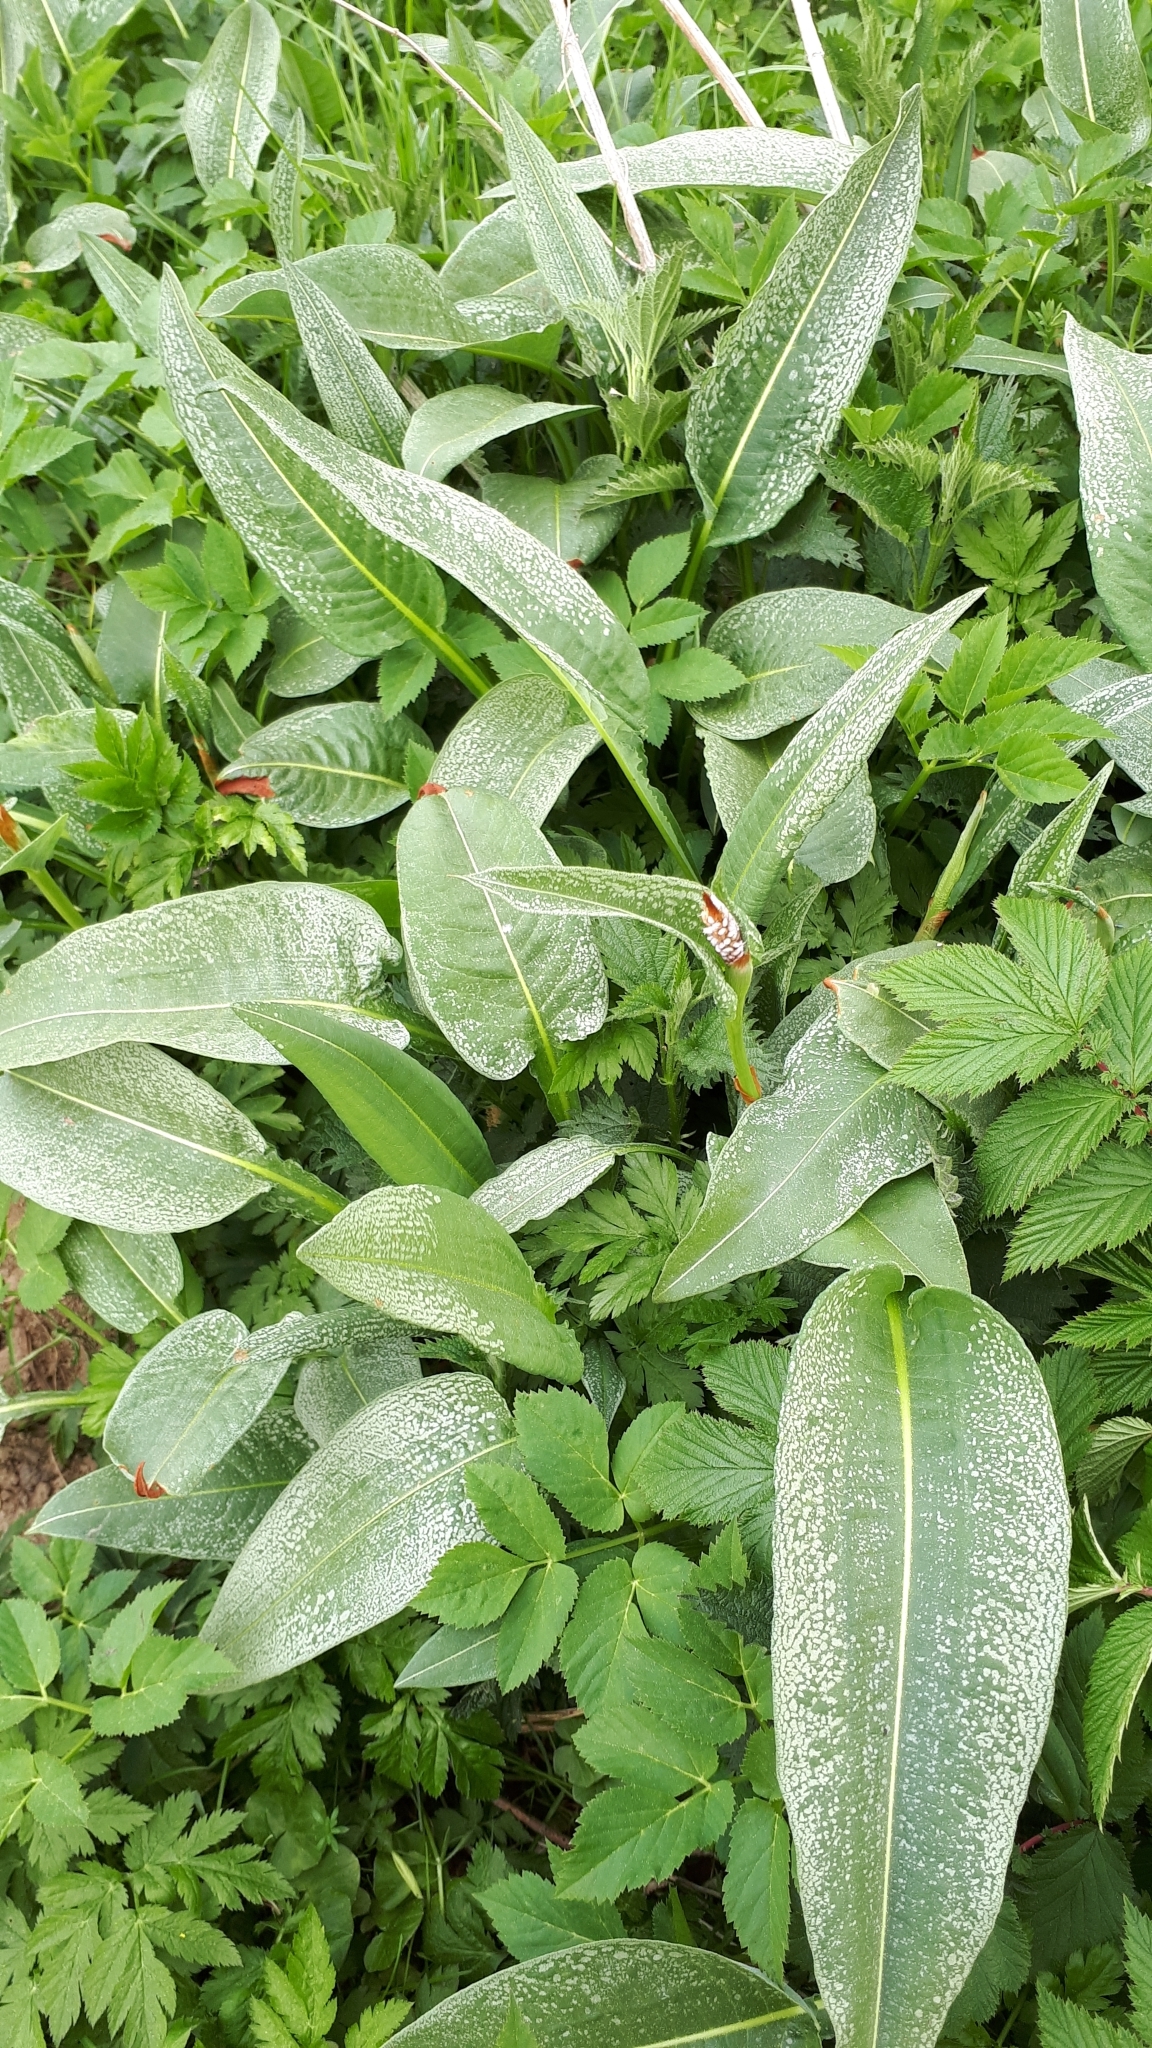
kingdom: Plantae
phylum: Tracheophyta
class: Magnoliopsida
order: Caryophyllales
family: Polygonaceae
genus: Bistorta
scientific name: Bistorta officinalis
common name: Common bistort
